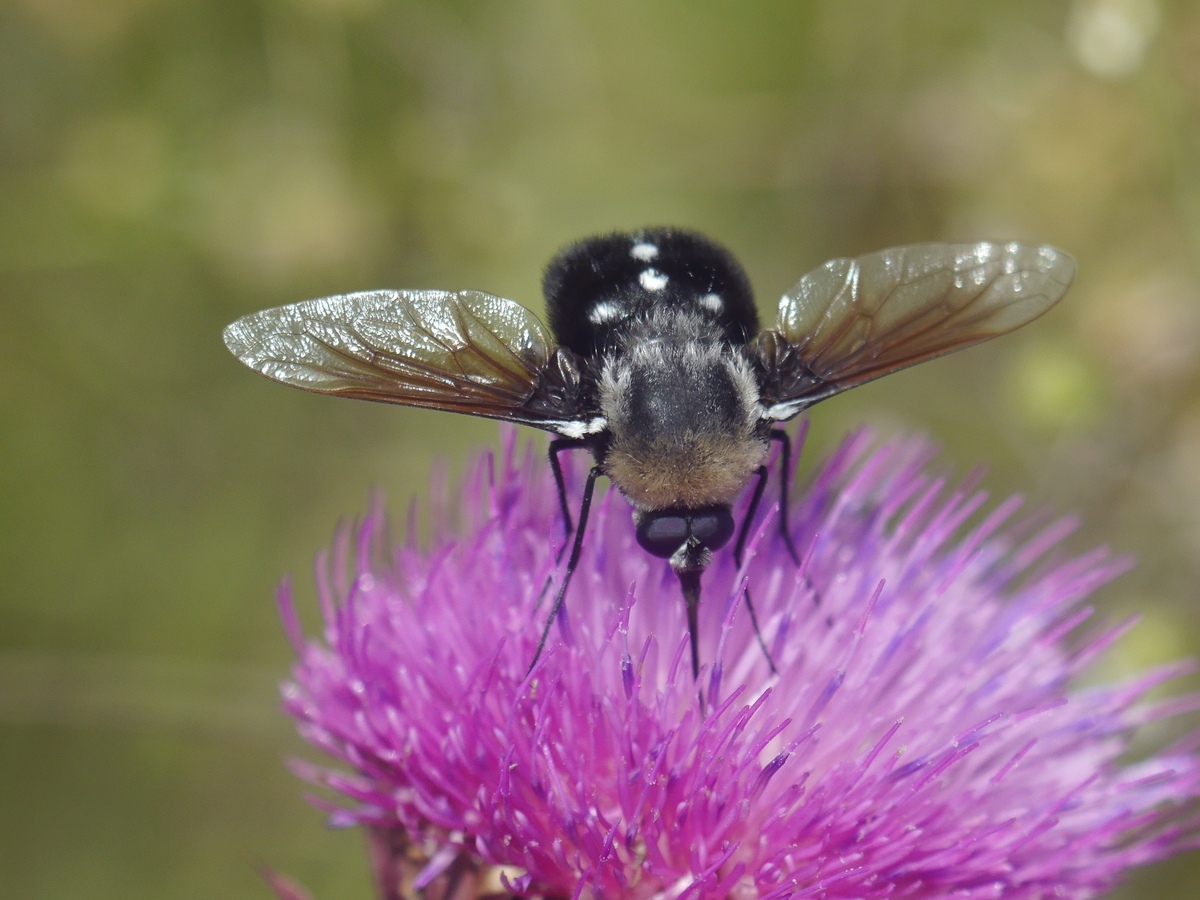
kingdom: Animalia
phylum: Arthropoda
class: Insecta
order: Diptera
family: Bombyliidae
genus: Bombomyia
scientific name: Bombomyia vertebralis
